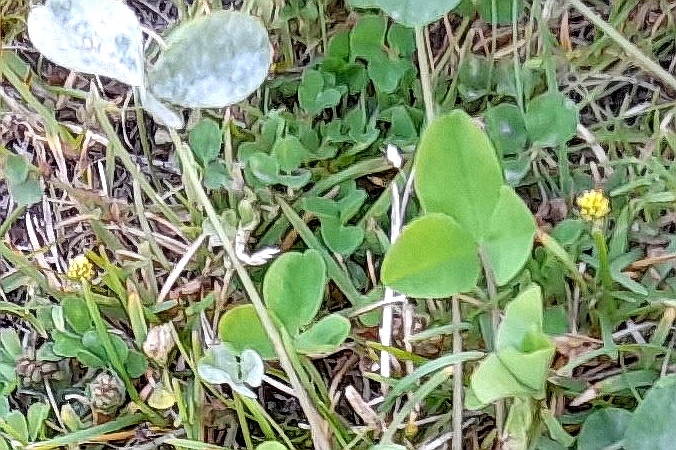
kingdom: Plantae
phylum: Tracheophyta
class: Magnoliopsida
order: Fabales
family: Fabaceae
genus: Medicago
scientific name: Medicago lupulina
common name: Black medick
